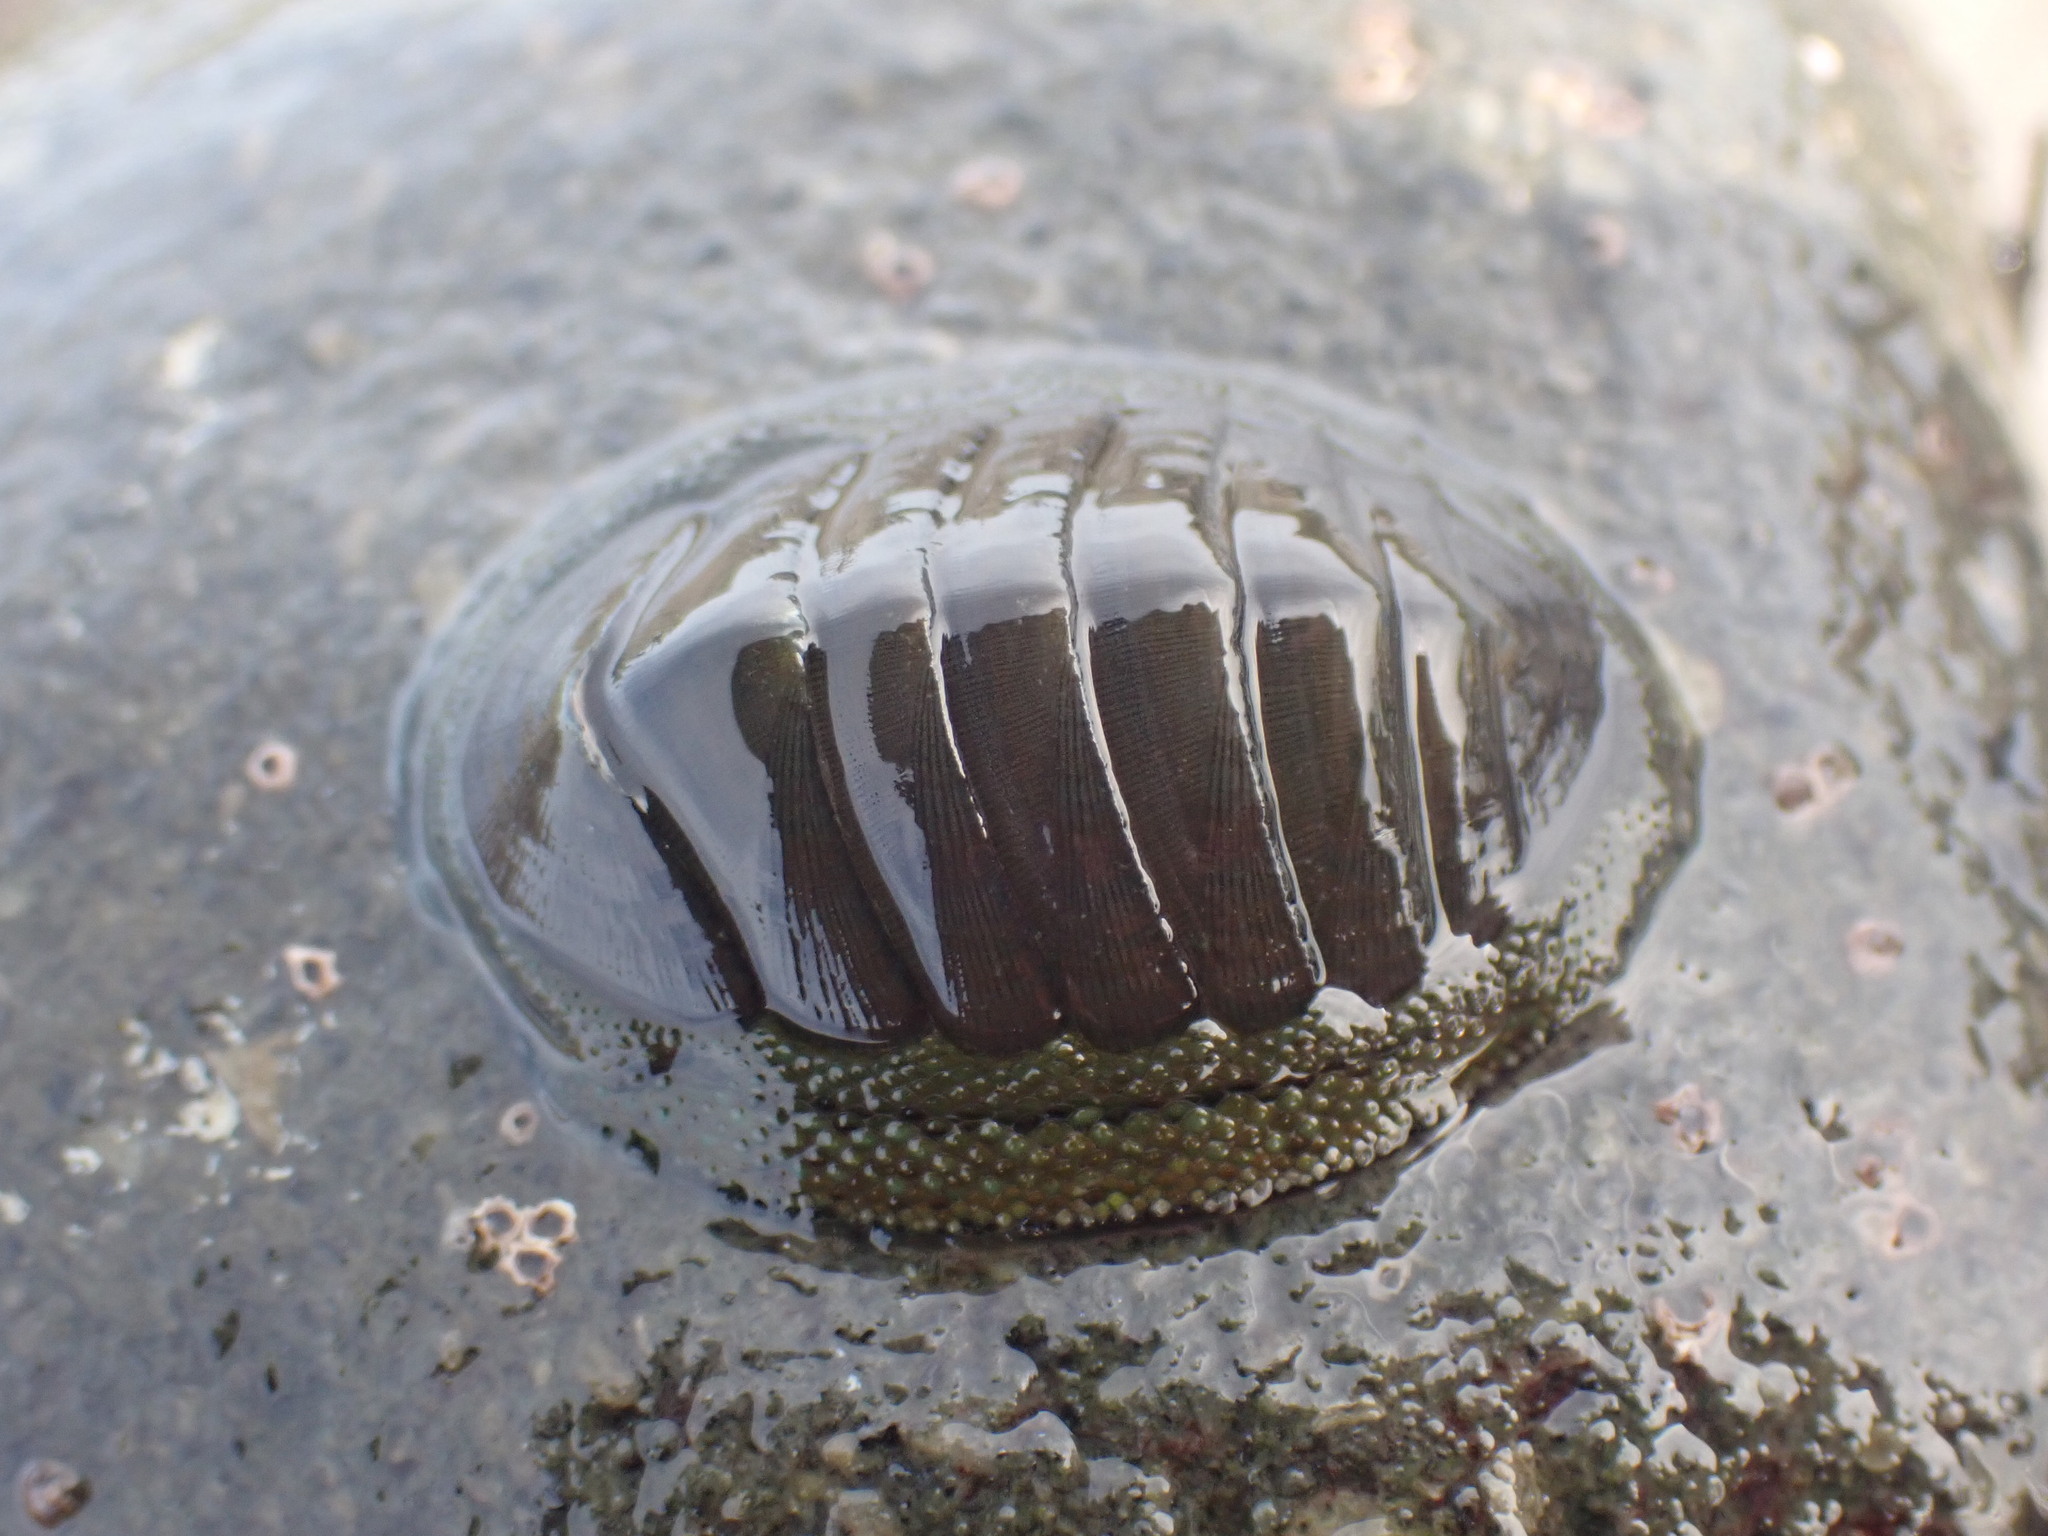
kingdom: Animalia
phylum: Mollusca
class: Polyplacophora
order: Chitonida
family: Chitonidae
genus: Chiton
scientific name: Chiton glaucus
